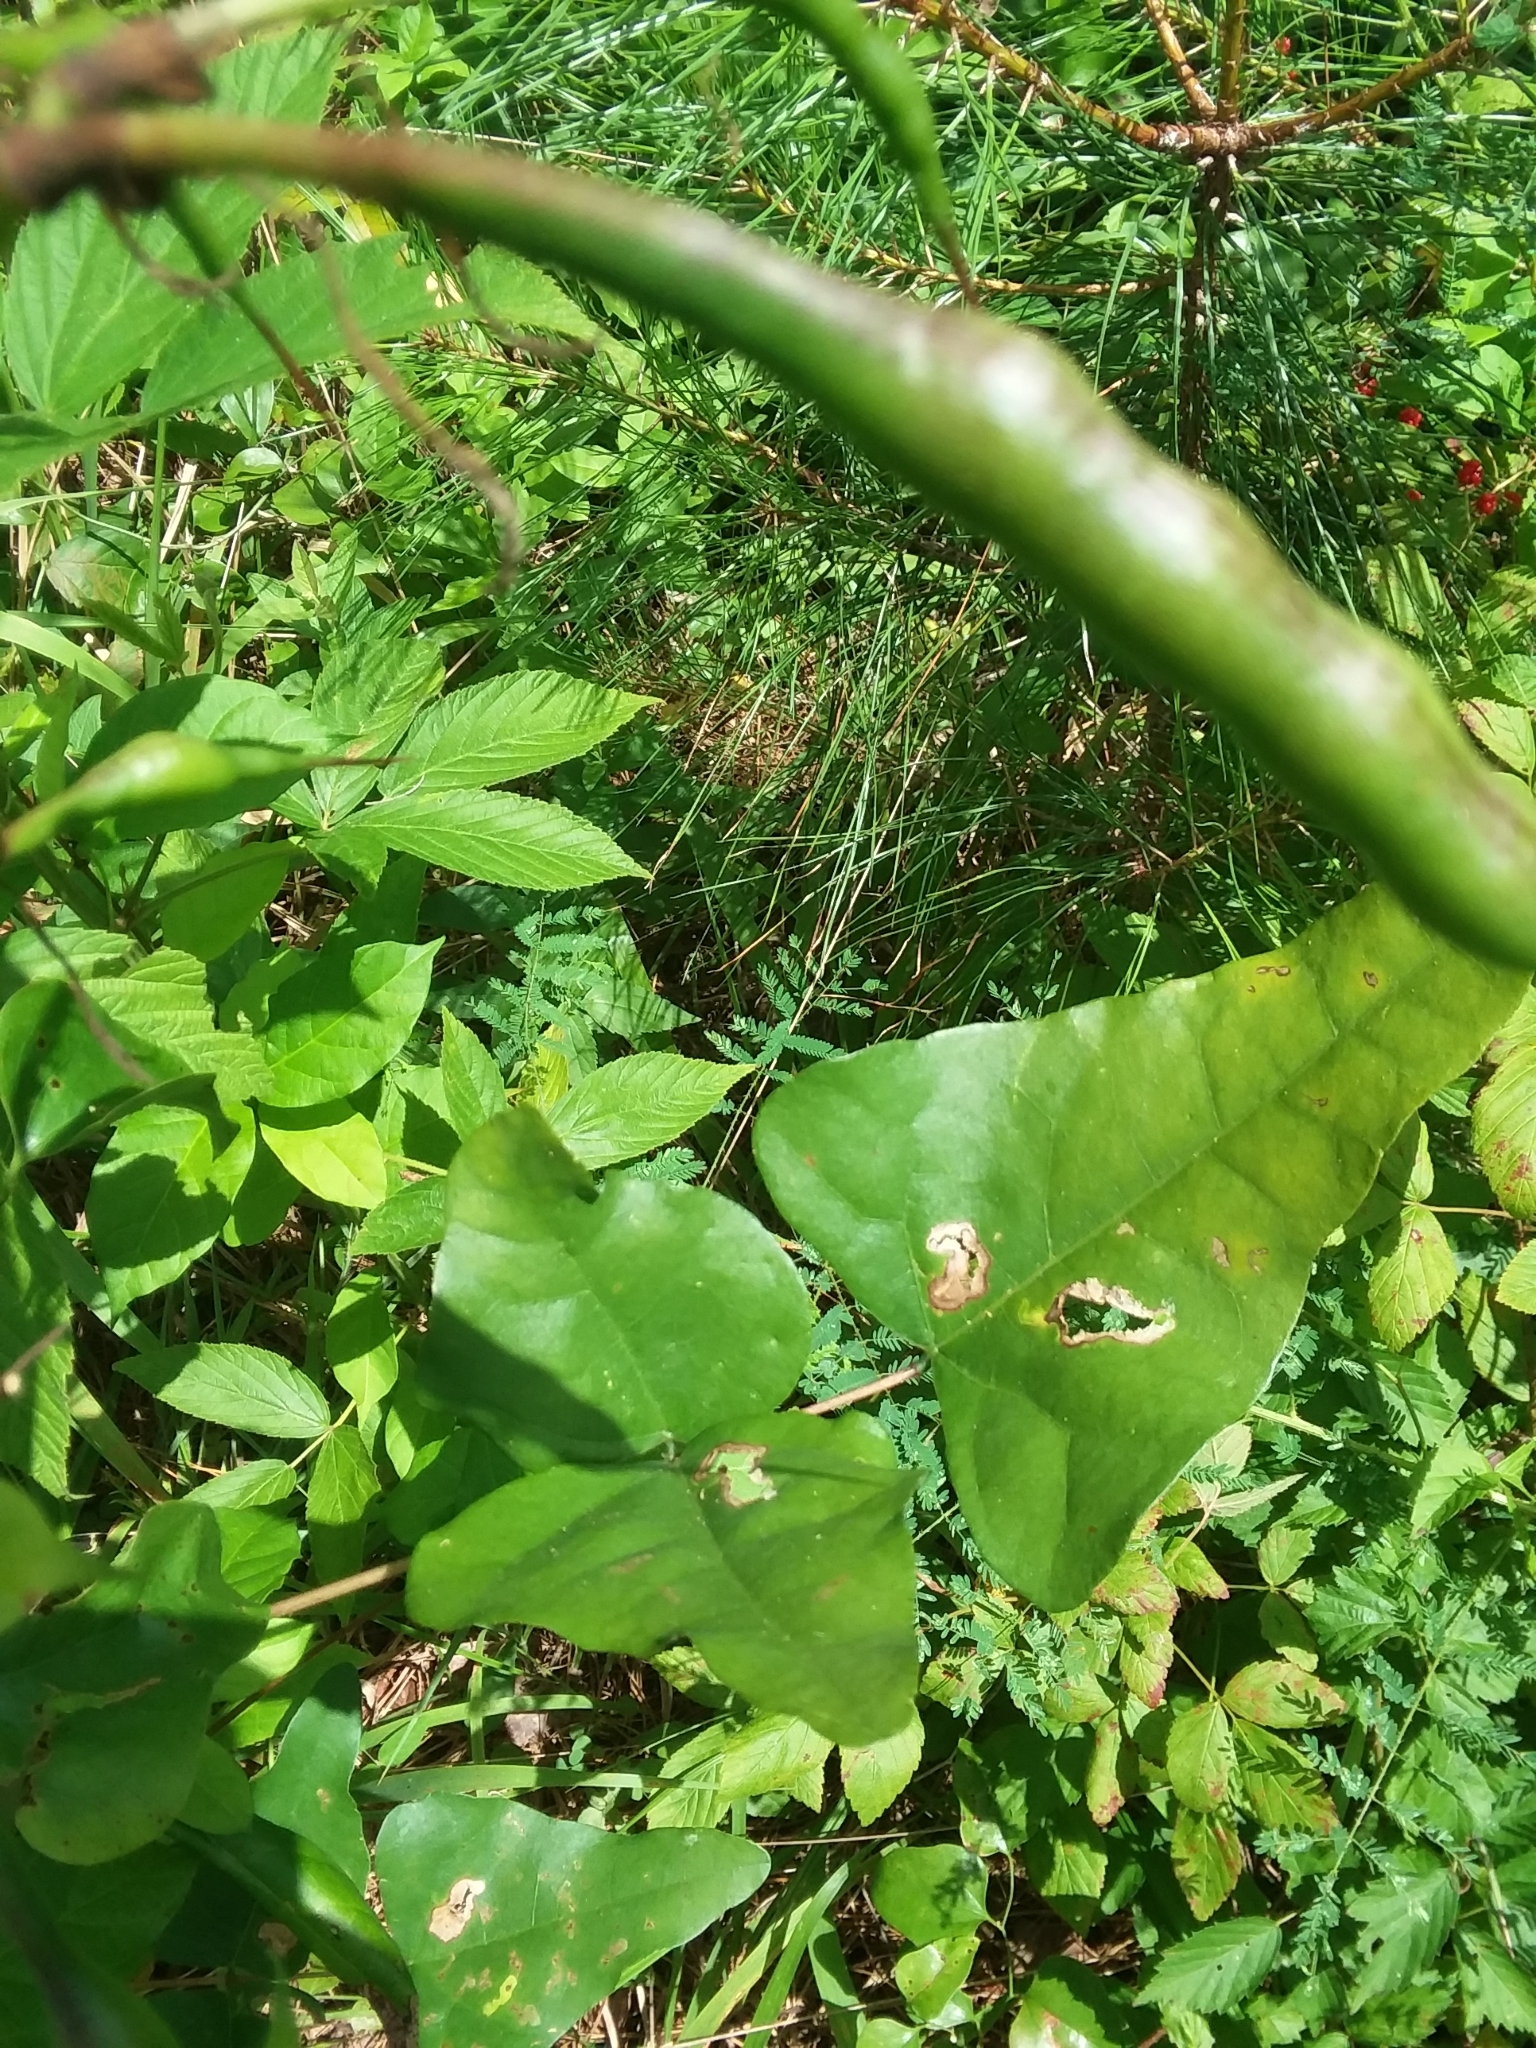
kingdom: Plantae
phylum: Tracheophyta
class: Magnoliopsida
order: Fabales
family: Fabaceae
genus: Erythrina
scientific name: Erythrina herbacea
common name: Coral-bean
